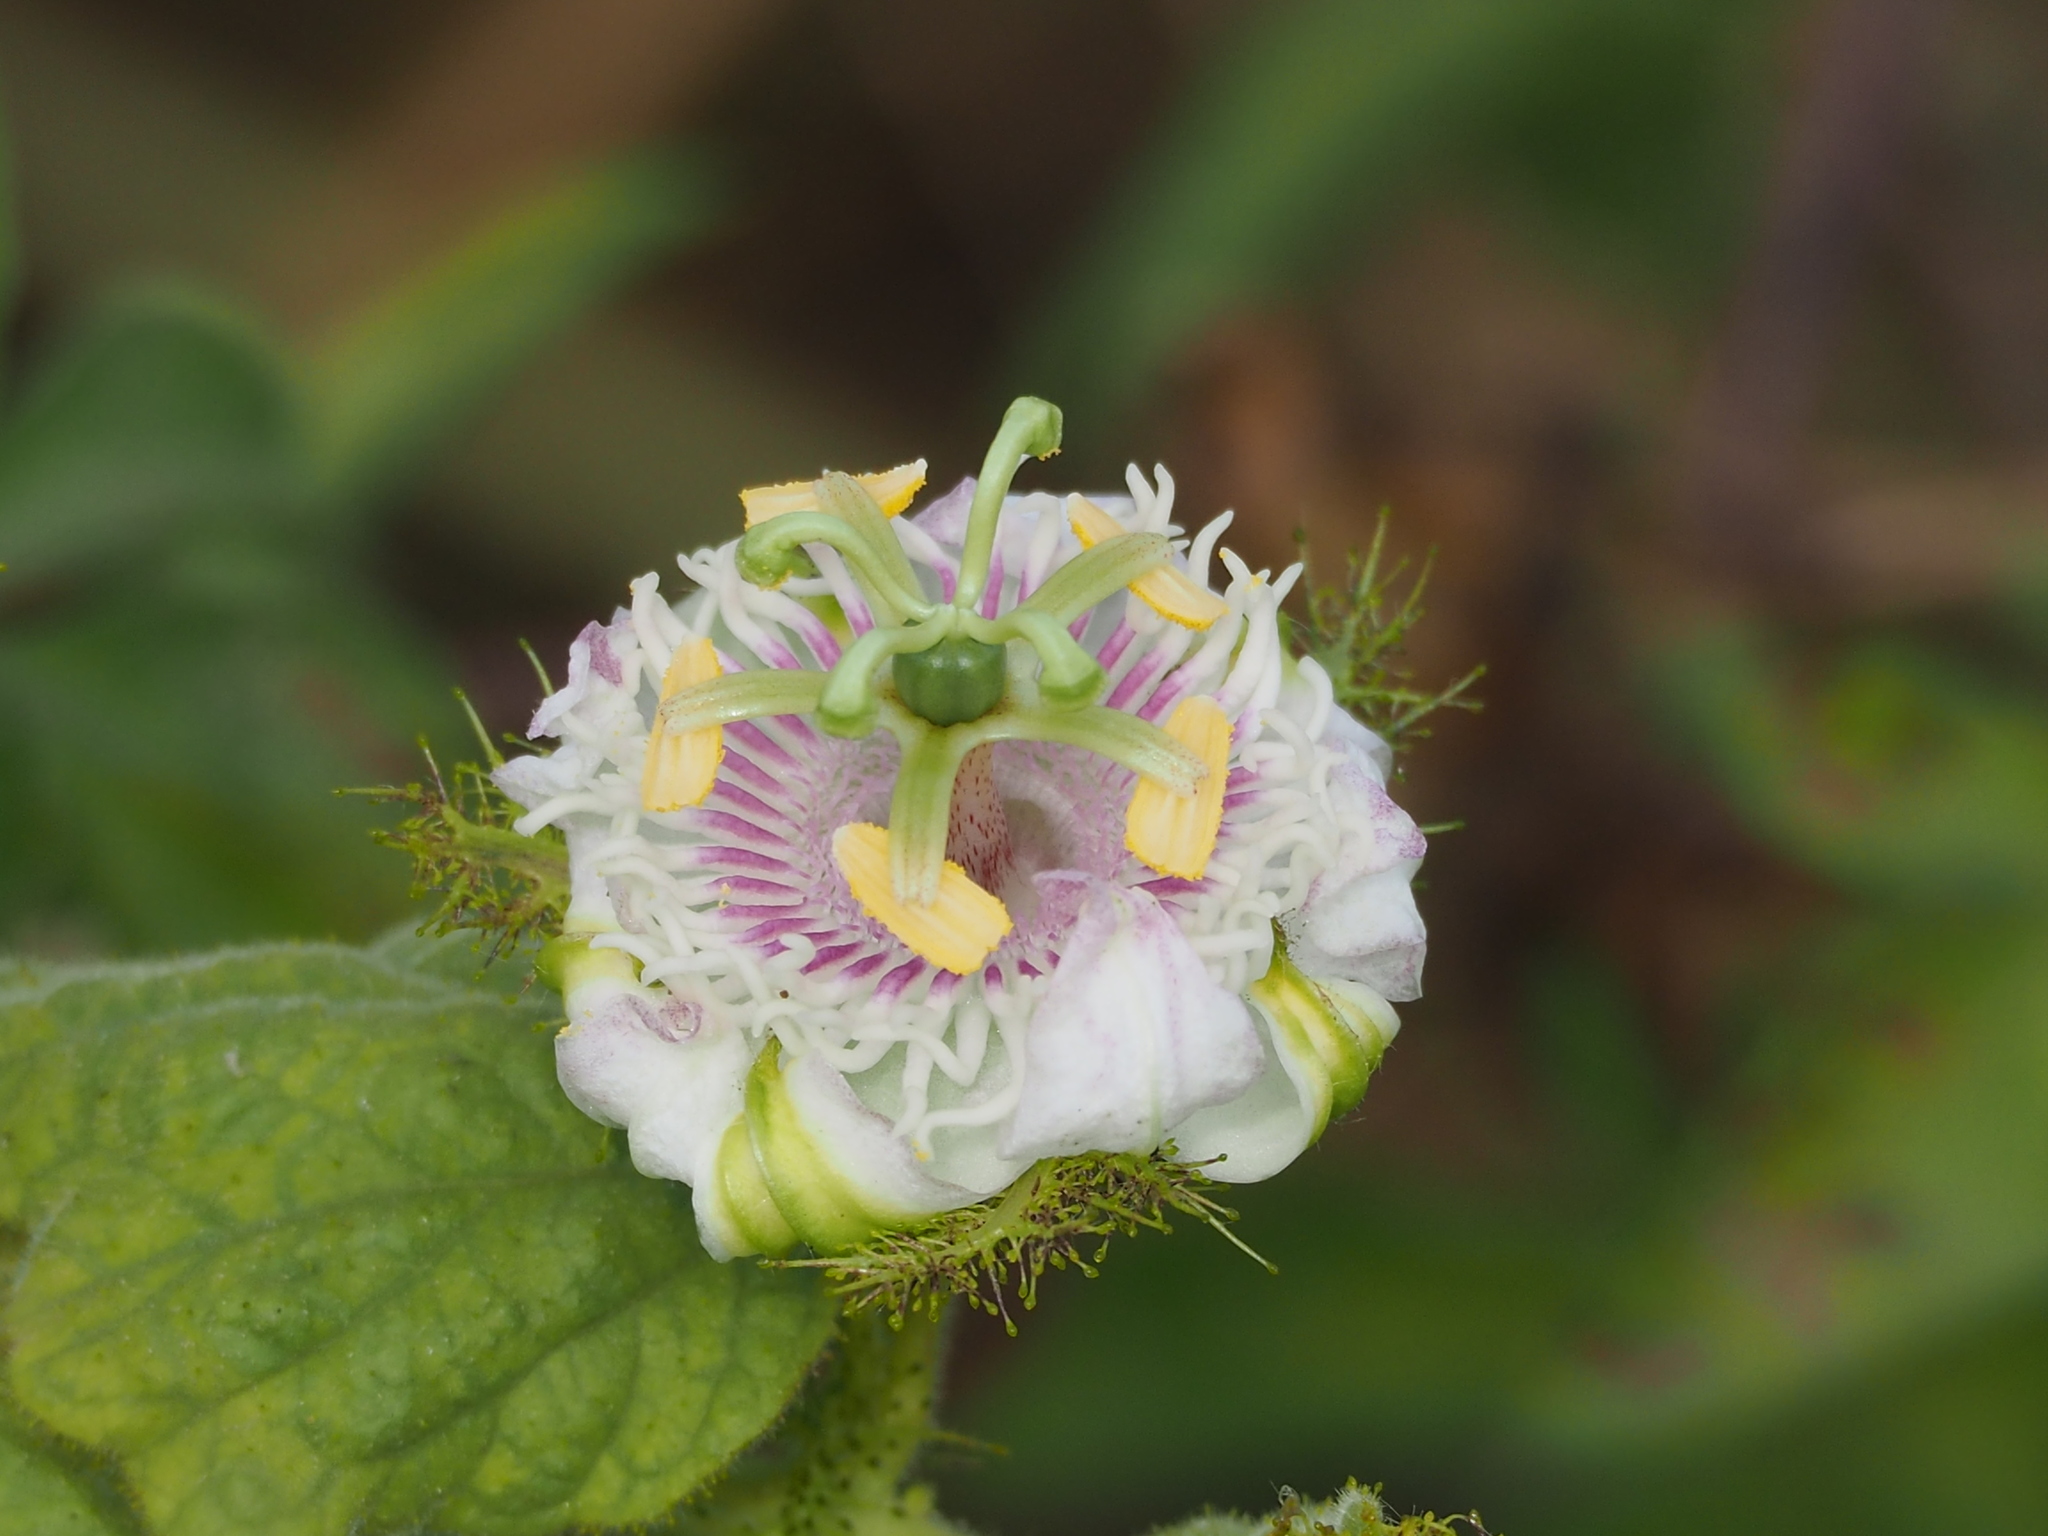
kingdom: Plantae
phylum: Tracheophyta
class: Magnoliopsida
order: Malpighiales
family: Passifloraceae
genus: Passiflora
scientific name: Passiflora vesicaria
